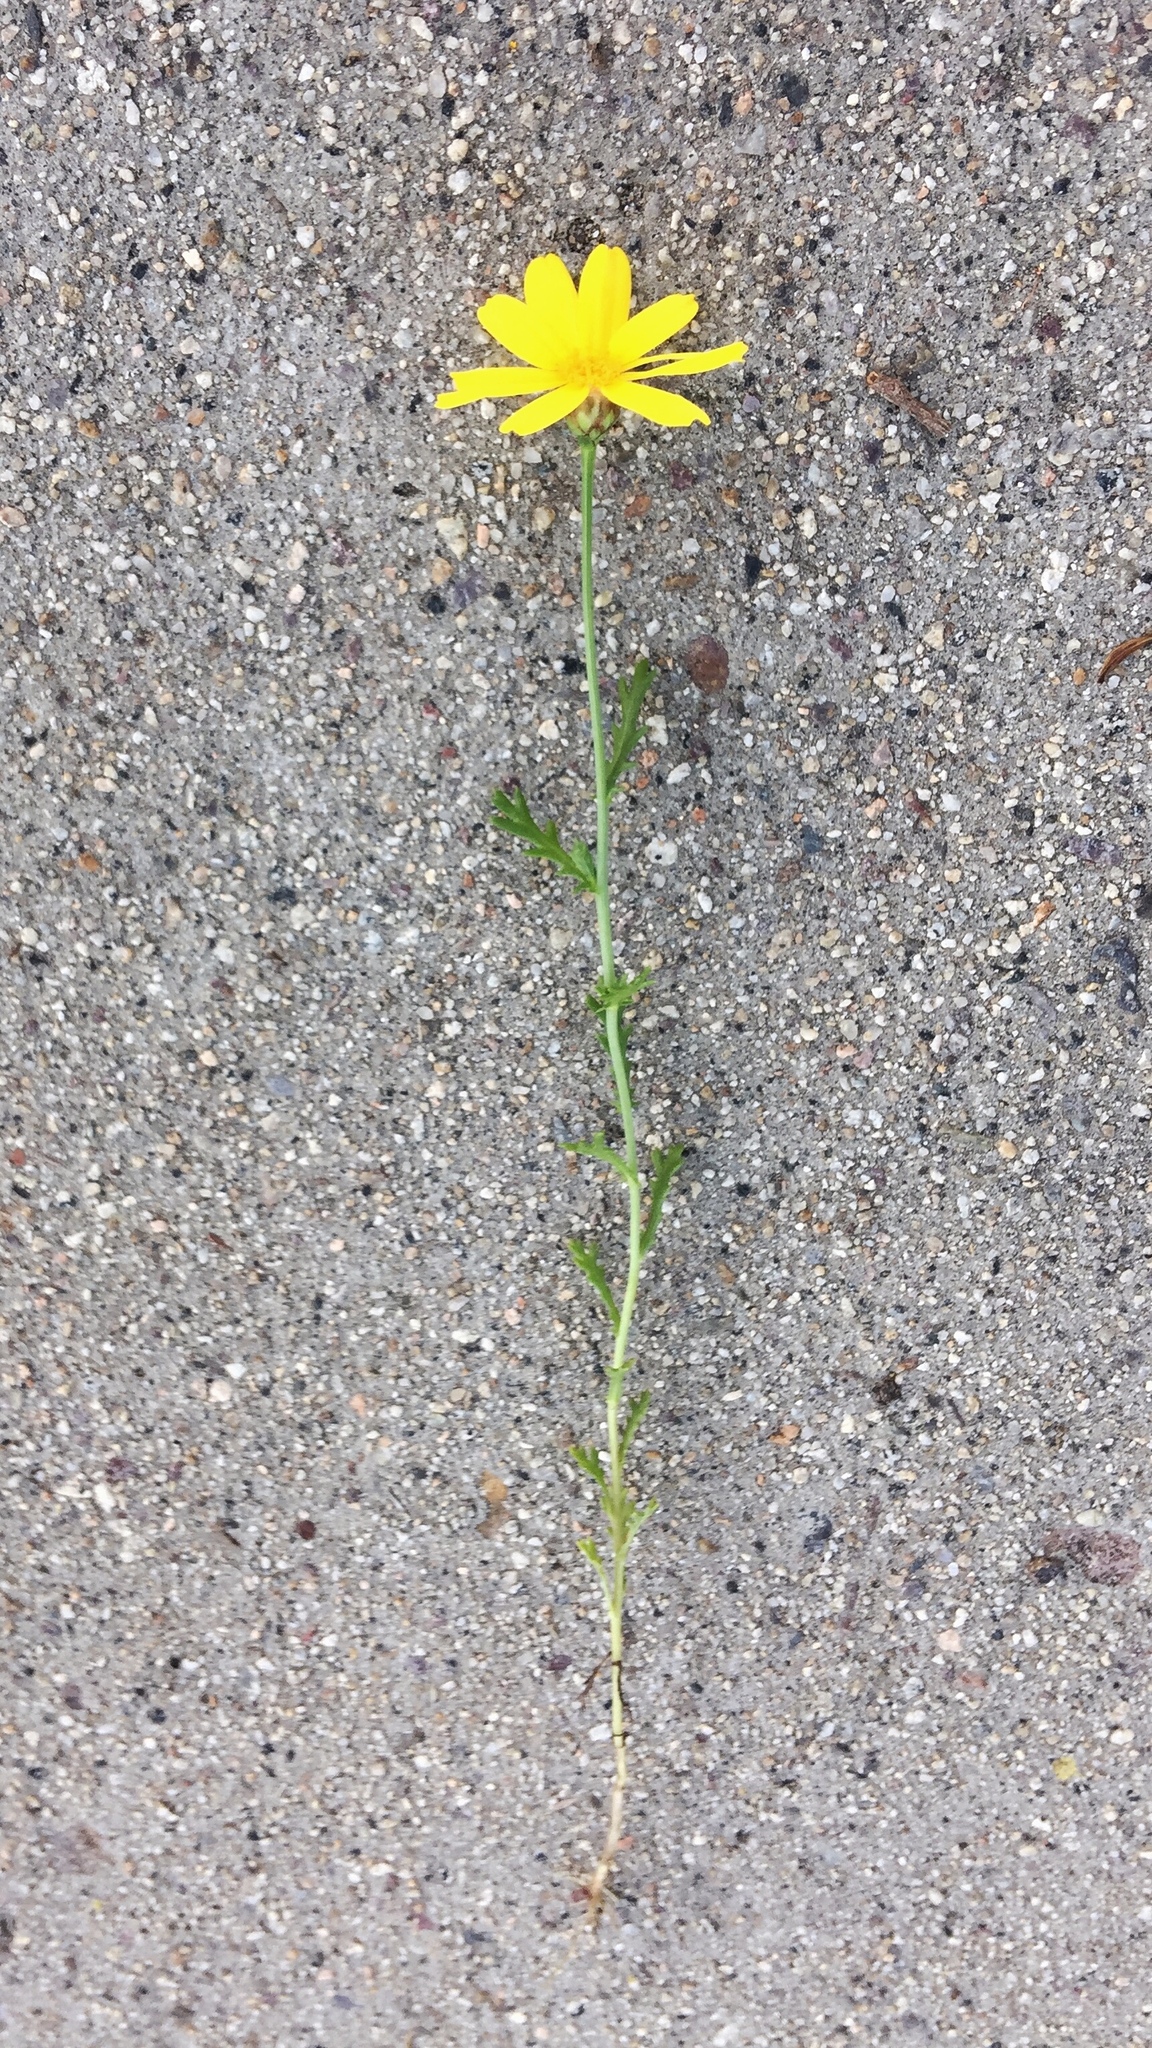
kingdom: Plantae
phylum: Tracheophyta
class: Magnoliopsida
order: Asterales
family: Asteraceae
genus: Glebionis
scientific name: Glebionis coronaria
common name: Crowndaisy
